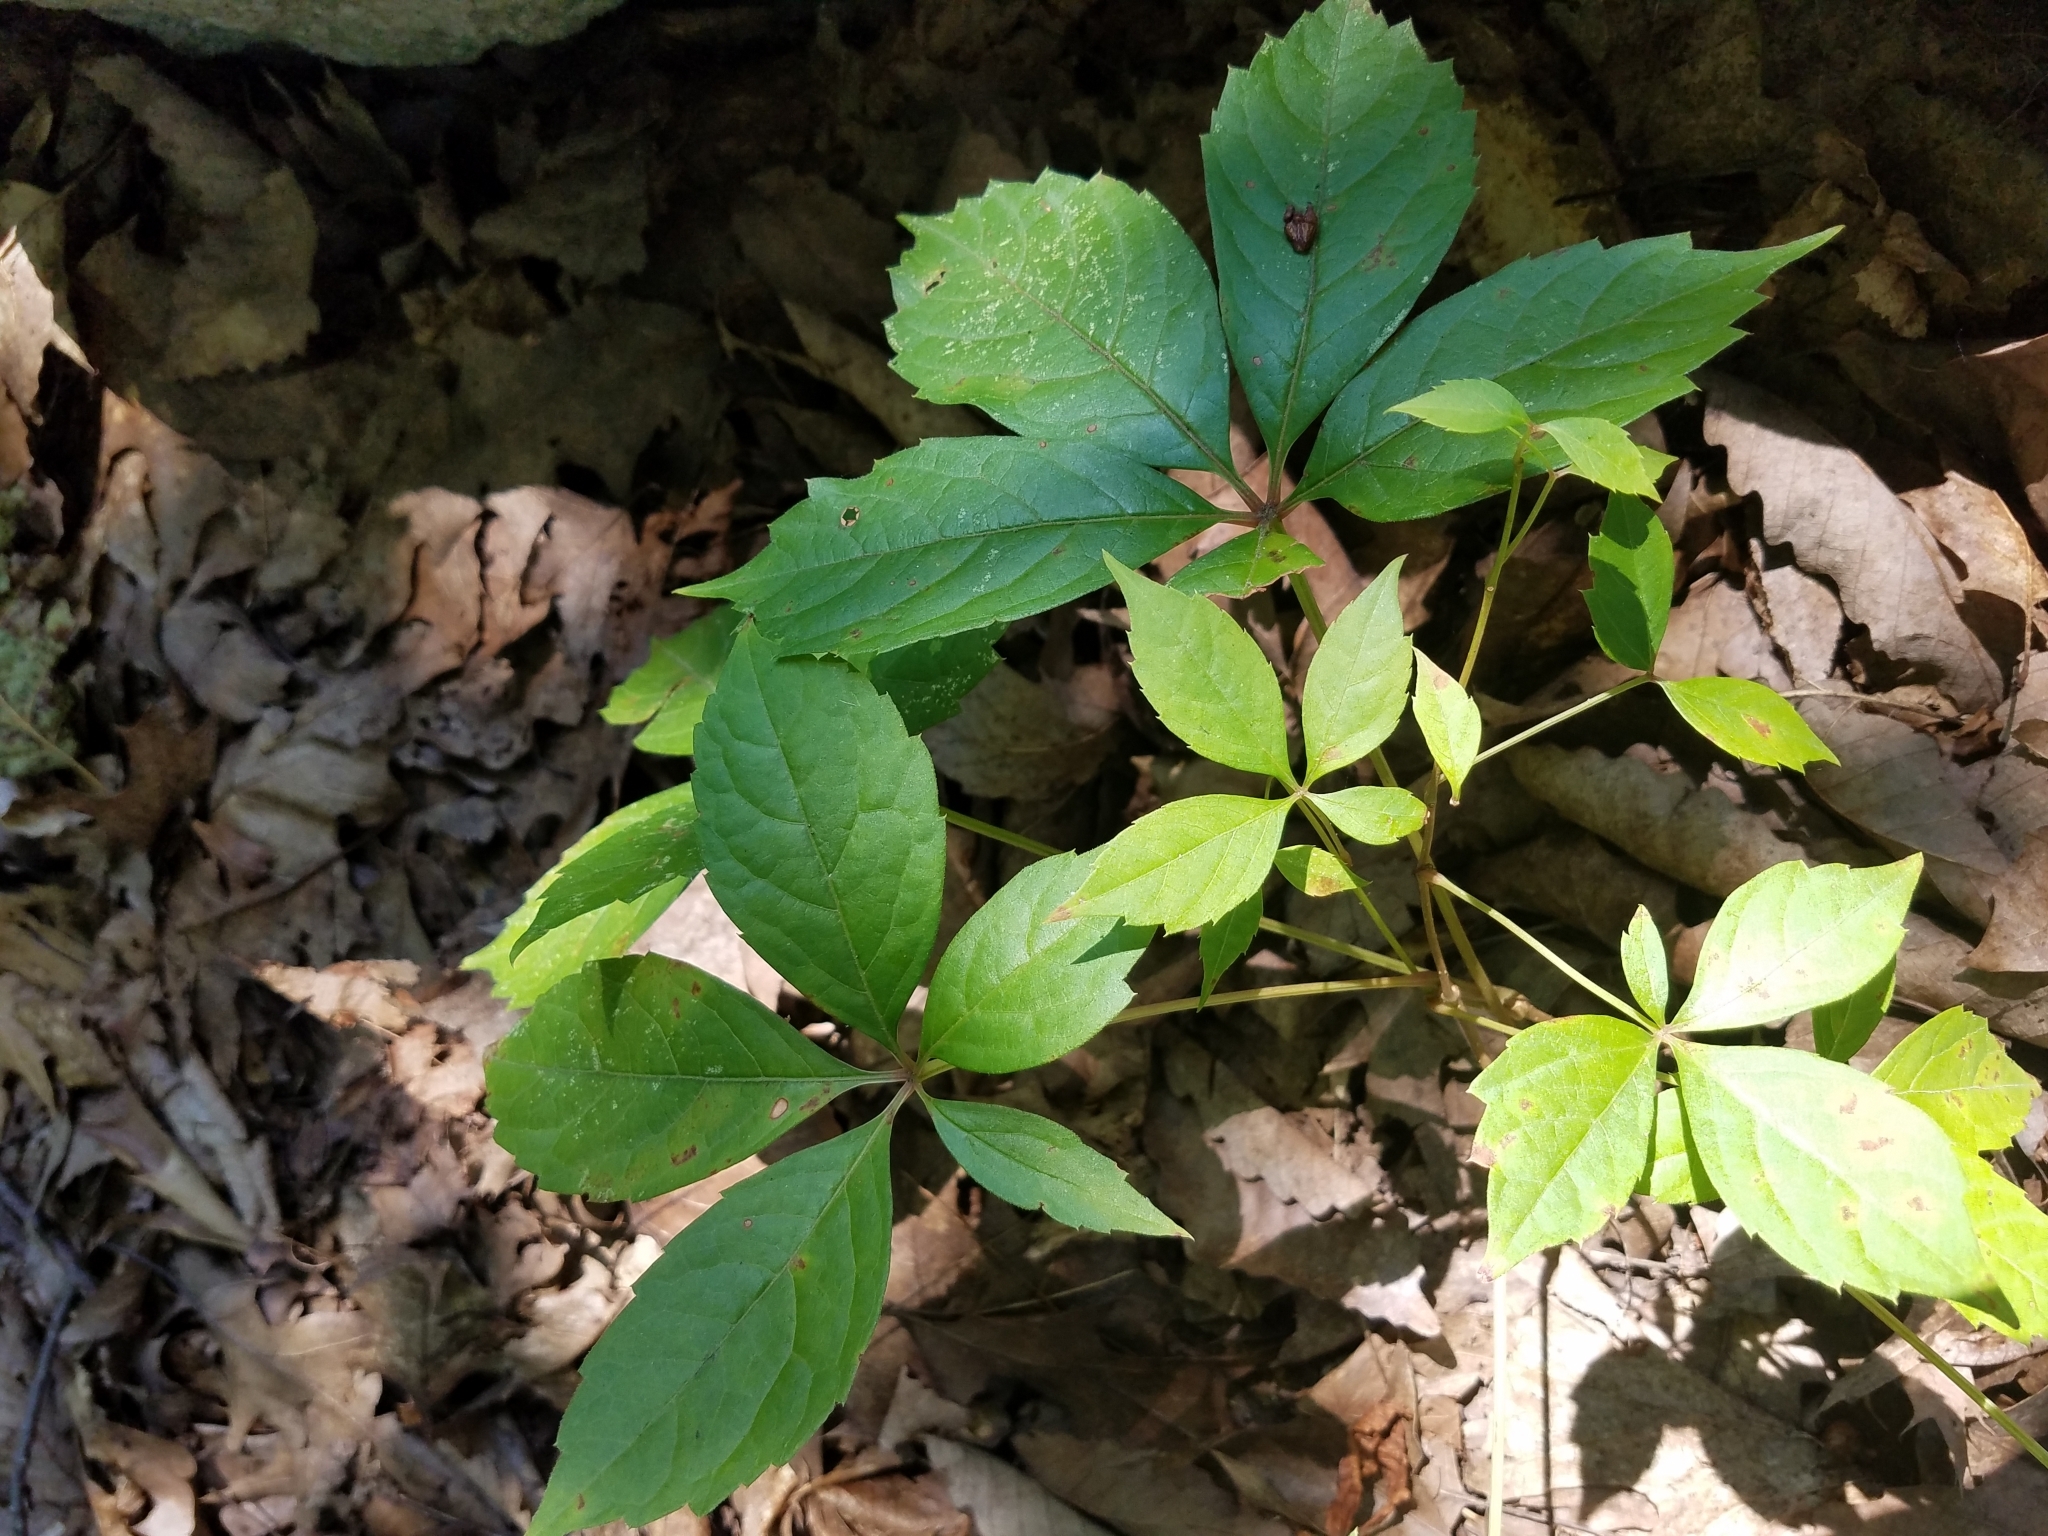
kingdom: Plantae
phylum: Tracheophyta
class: Magnoliopsida
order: Vitales
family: Vitaceae
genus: Parthenocissus
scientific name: Parthenocissus quinquefolia
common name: Virginia-creeper
